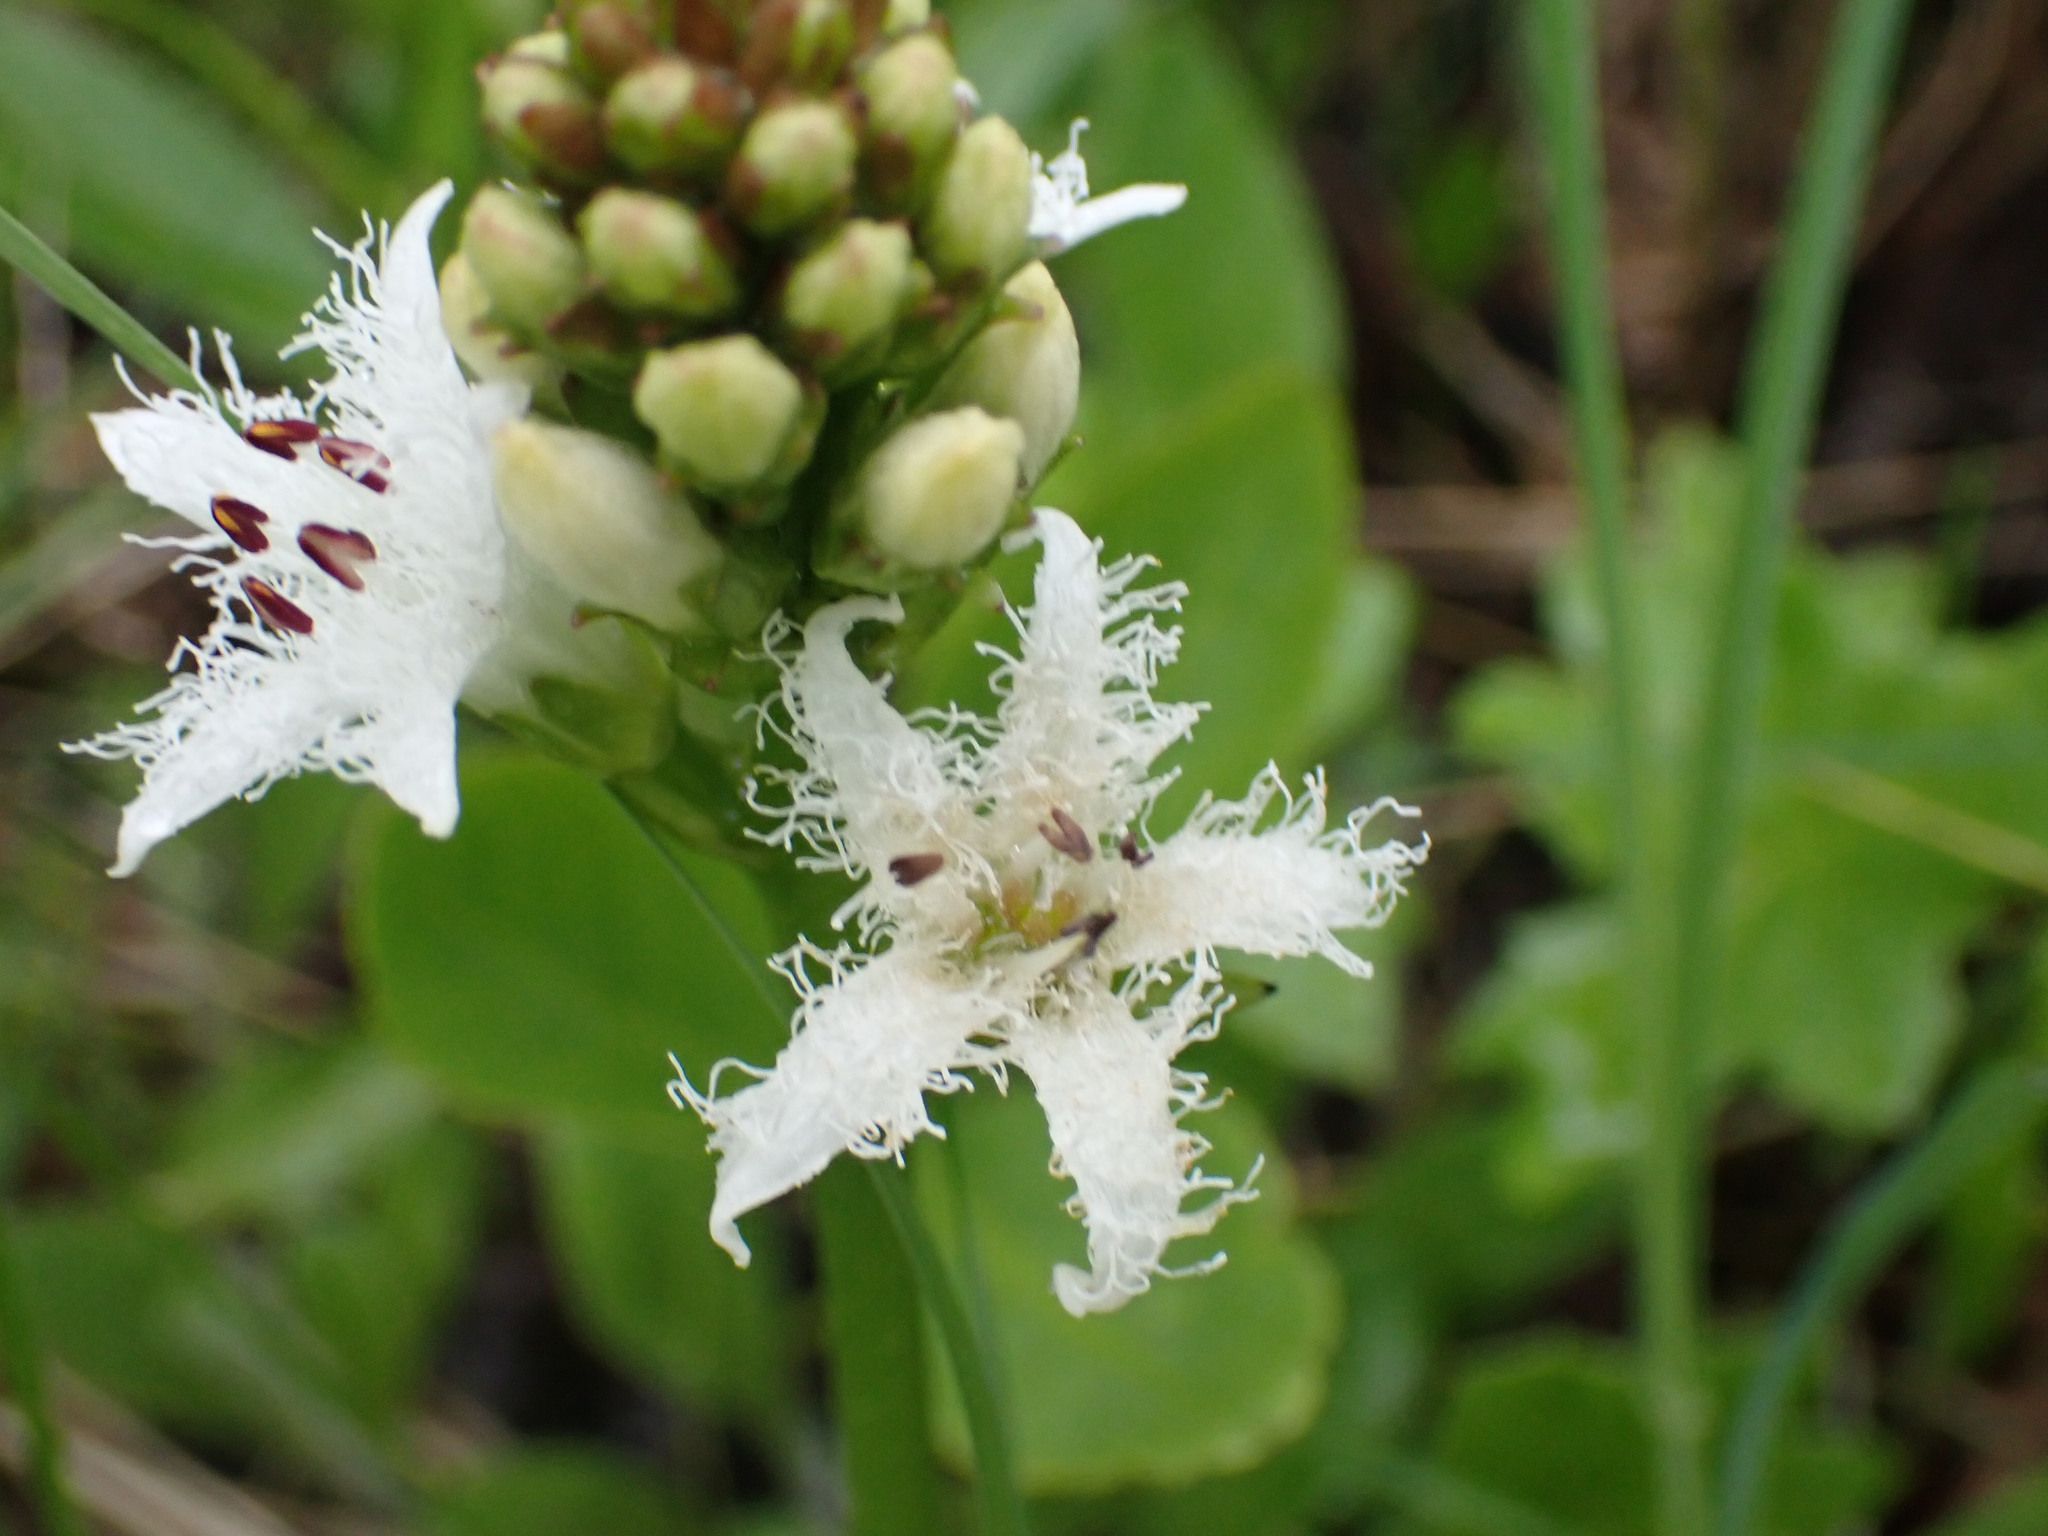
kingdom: Plantae
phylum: Tracheophyta
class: Magnoliopsida
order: Asterales
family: Menyanthaceae
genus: Menyanthes
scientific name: Menyanthes trifoliata
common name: Bogbean
